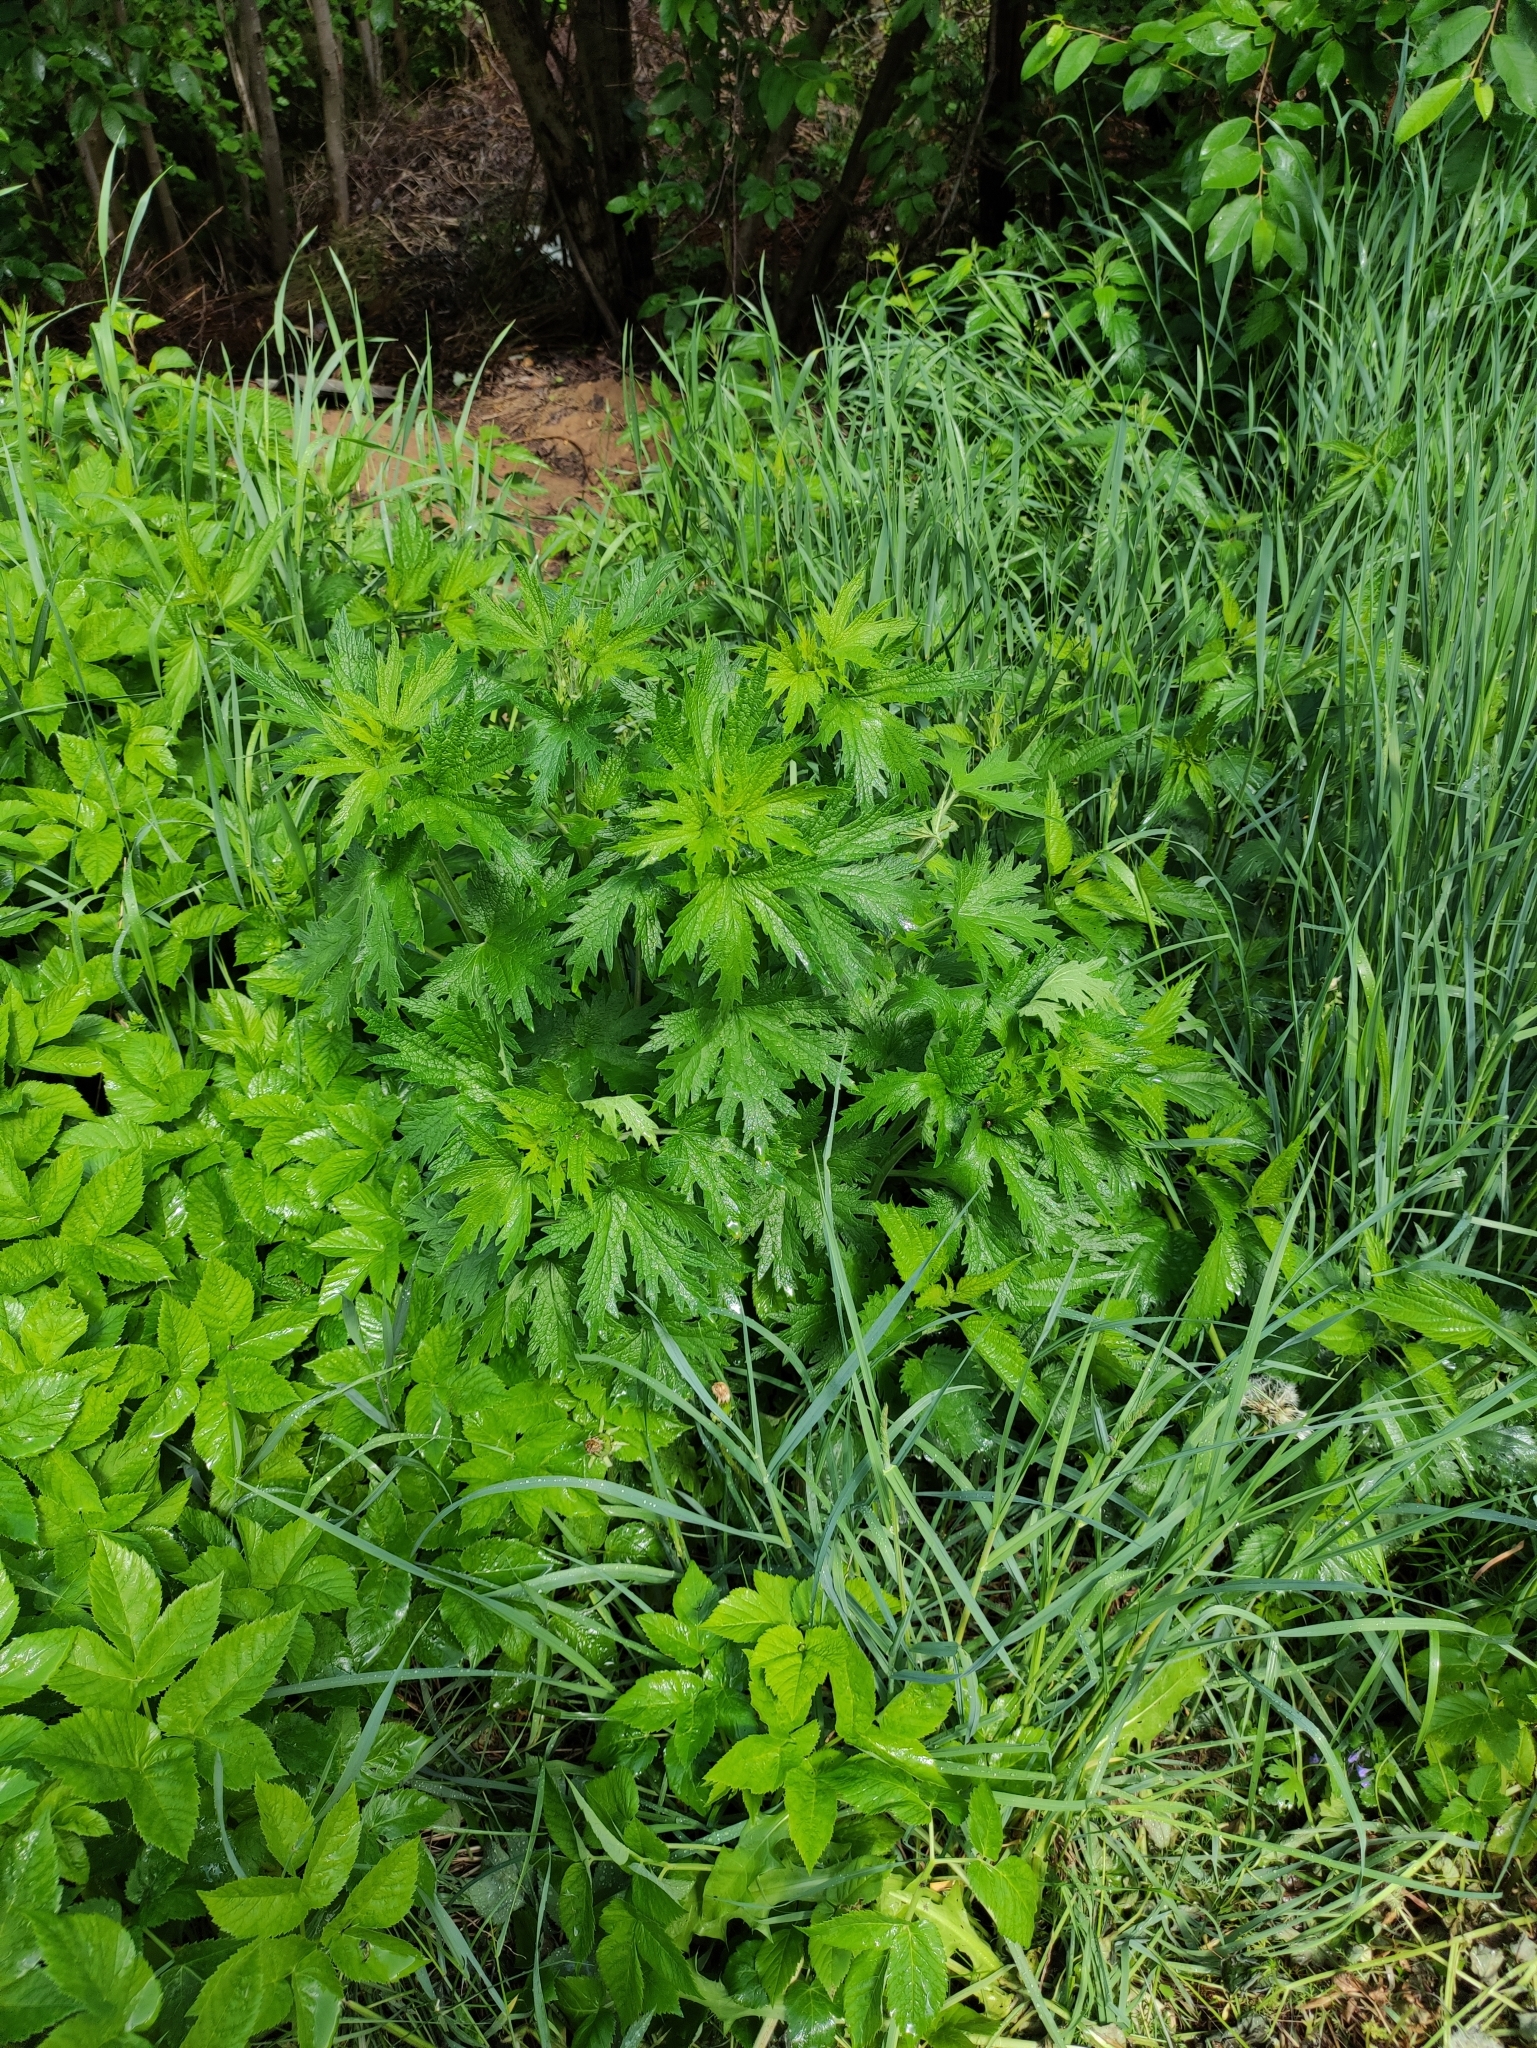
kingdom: Plantae
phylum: Tracheophyta
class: Magnoliopsida
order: Lamiales
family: Lamiaceae
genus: Leonurus
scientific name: Leonurus quinquelobatus
